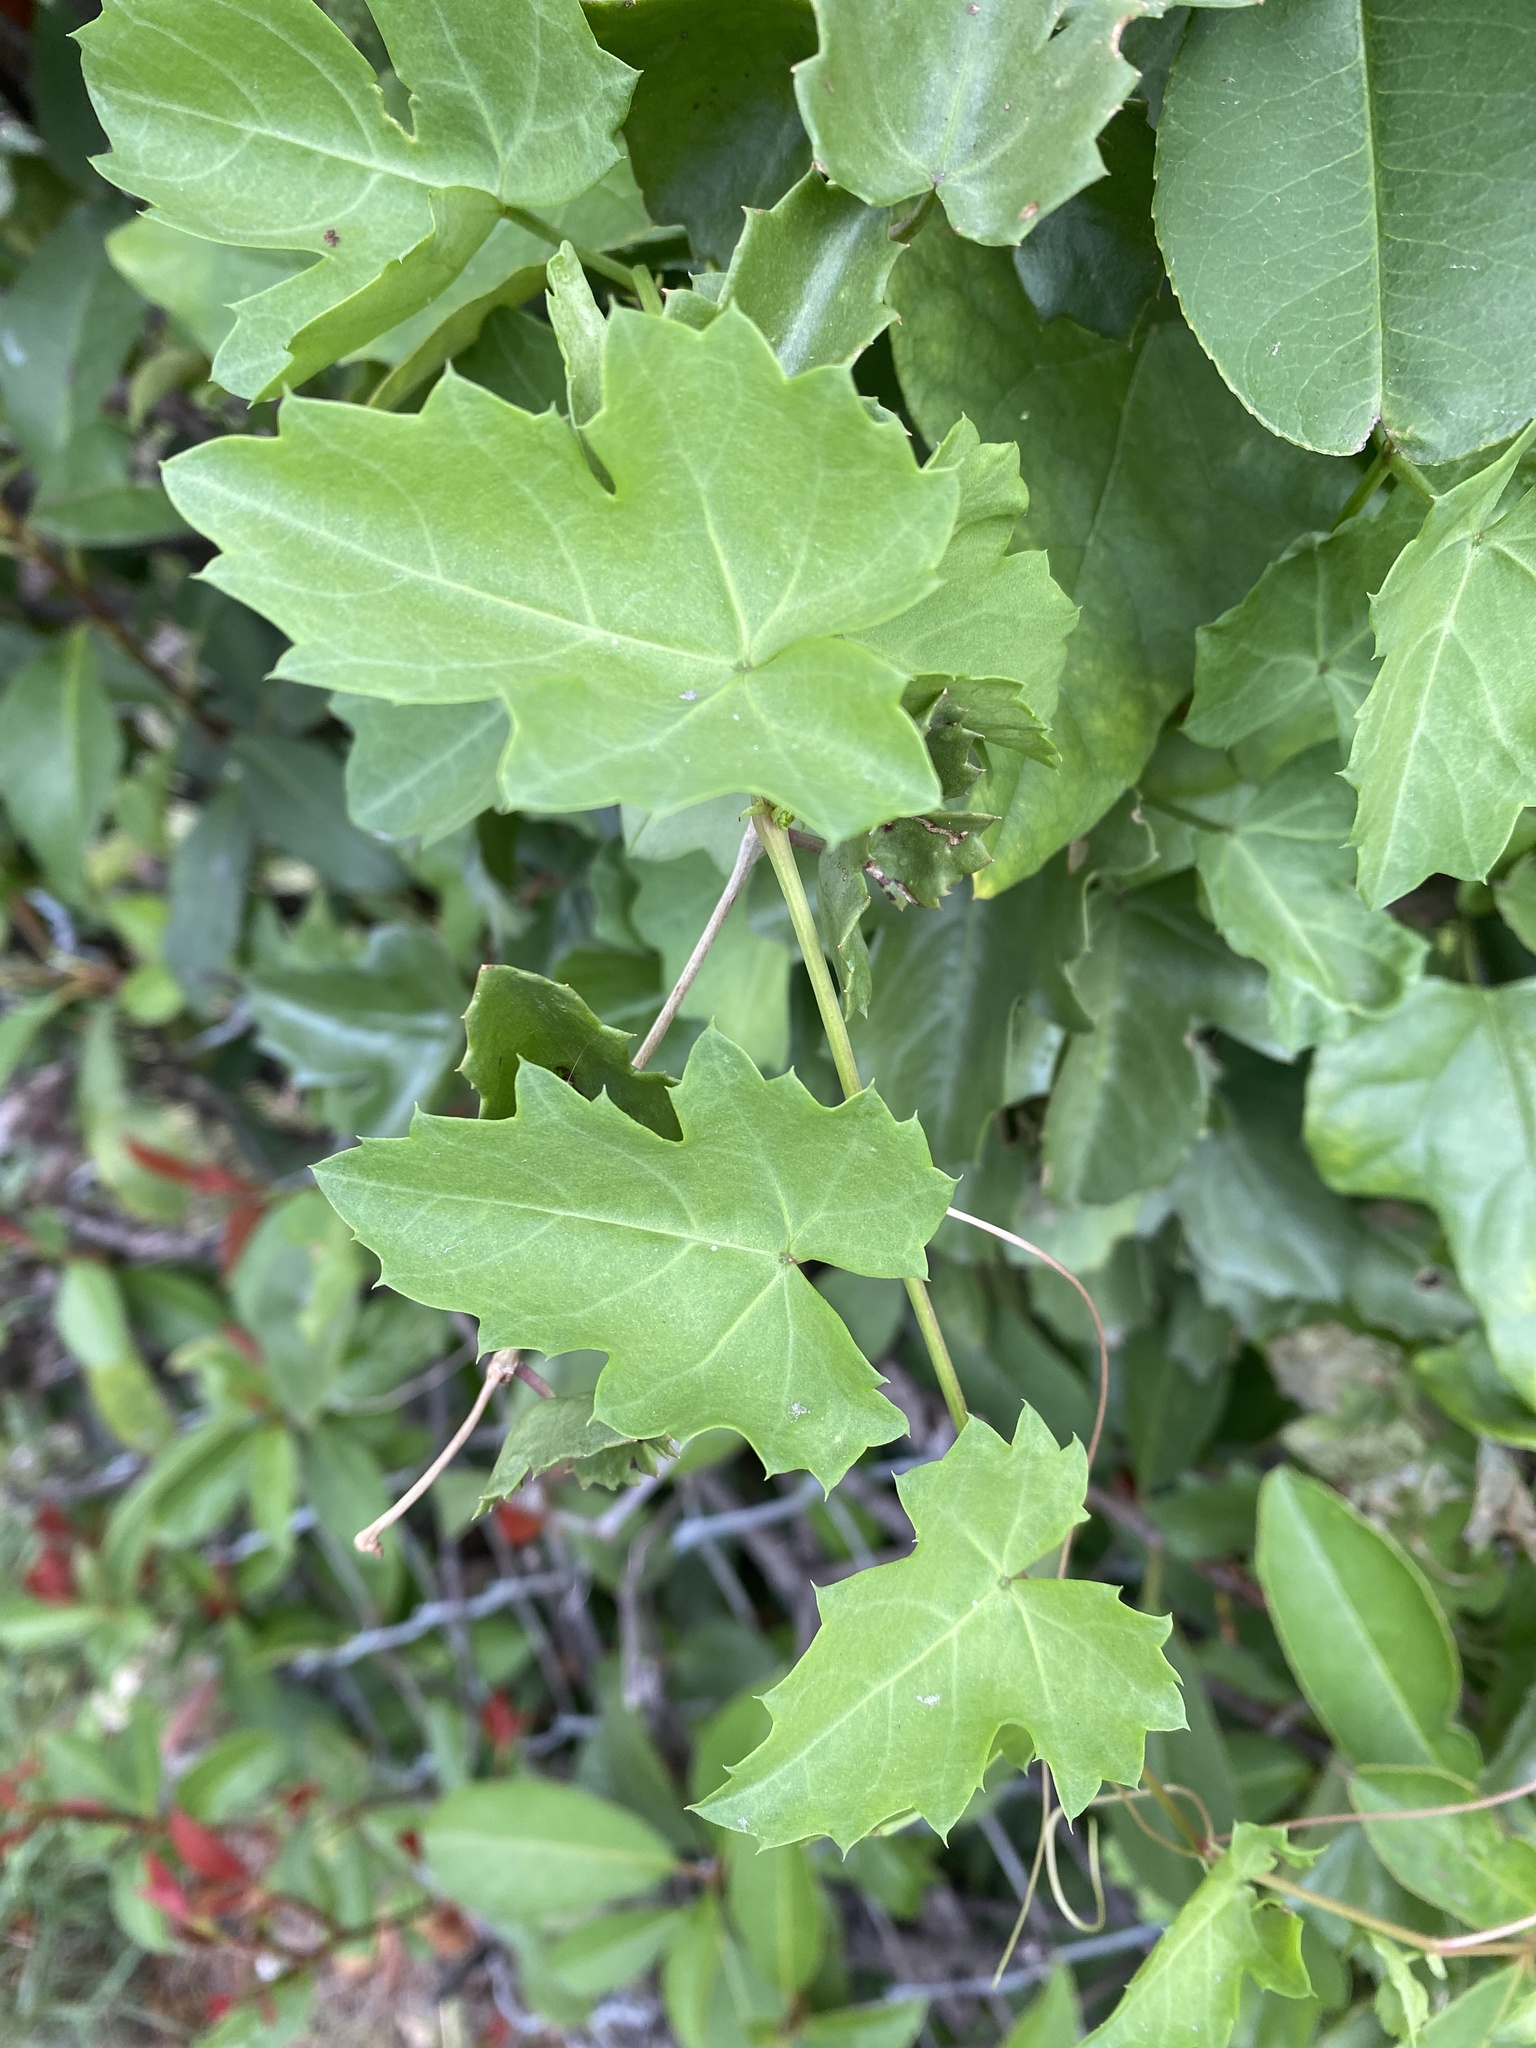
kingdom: Plantae
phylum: Tracheophyta
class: Magnoliopsida
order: Vitales
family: Vitaceae
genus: Cissus
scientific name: Cissus trifoliata
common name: Vine-sorrel
